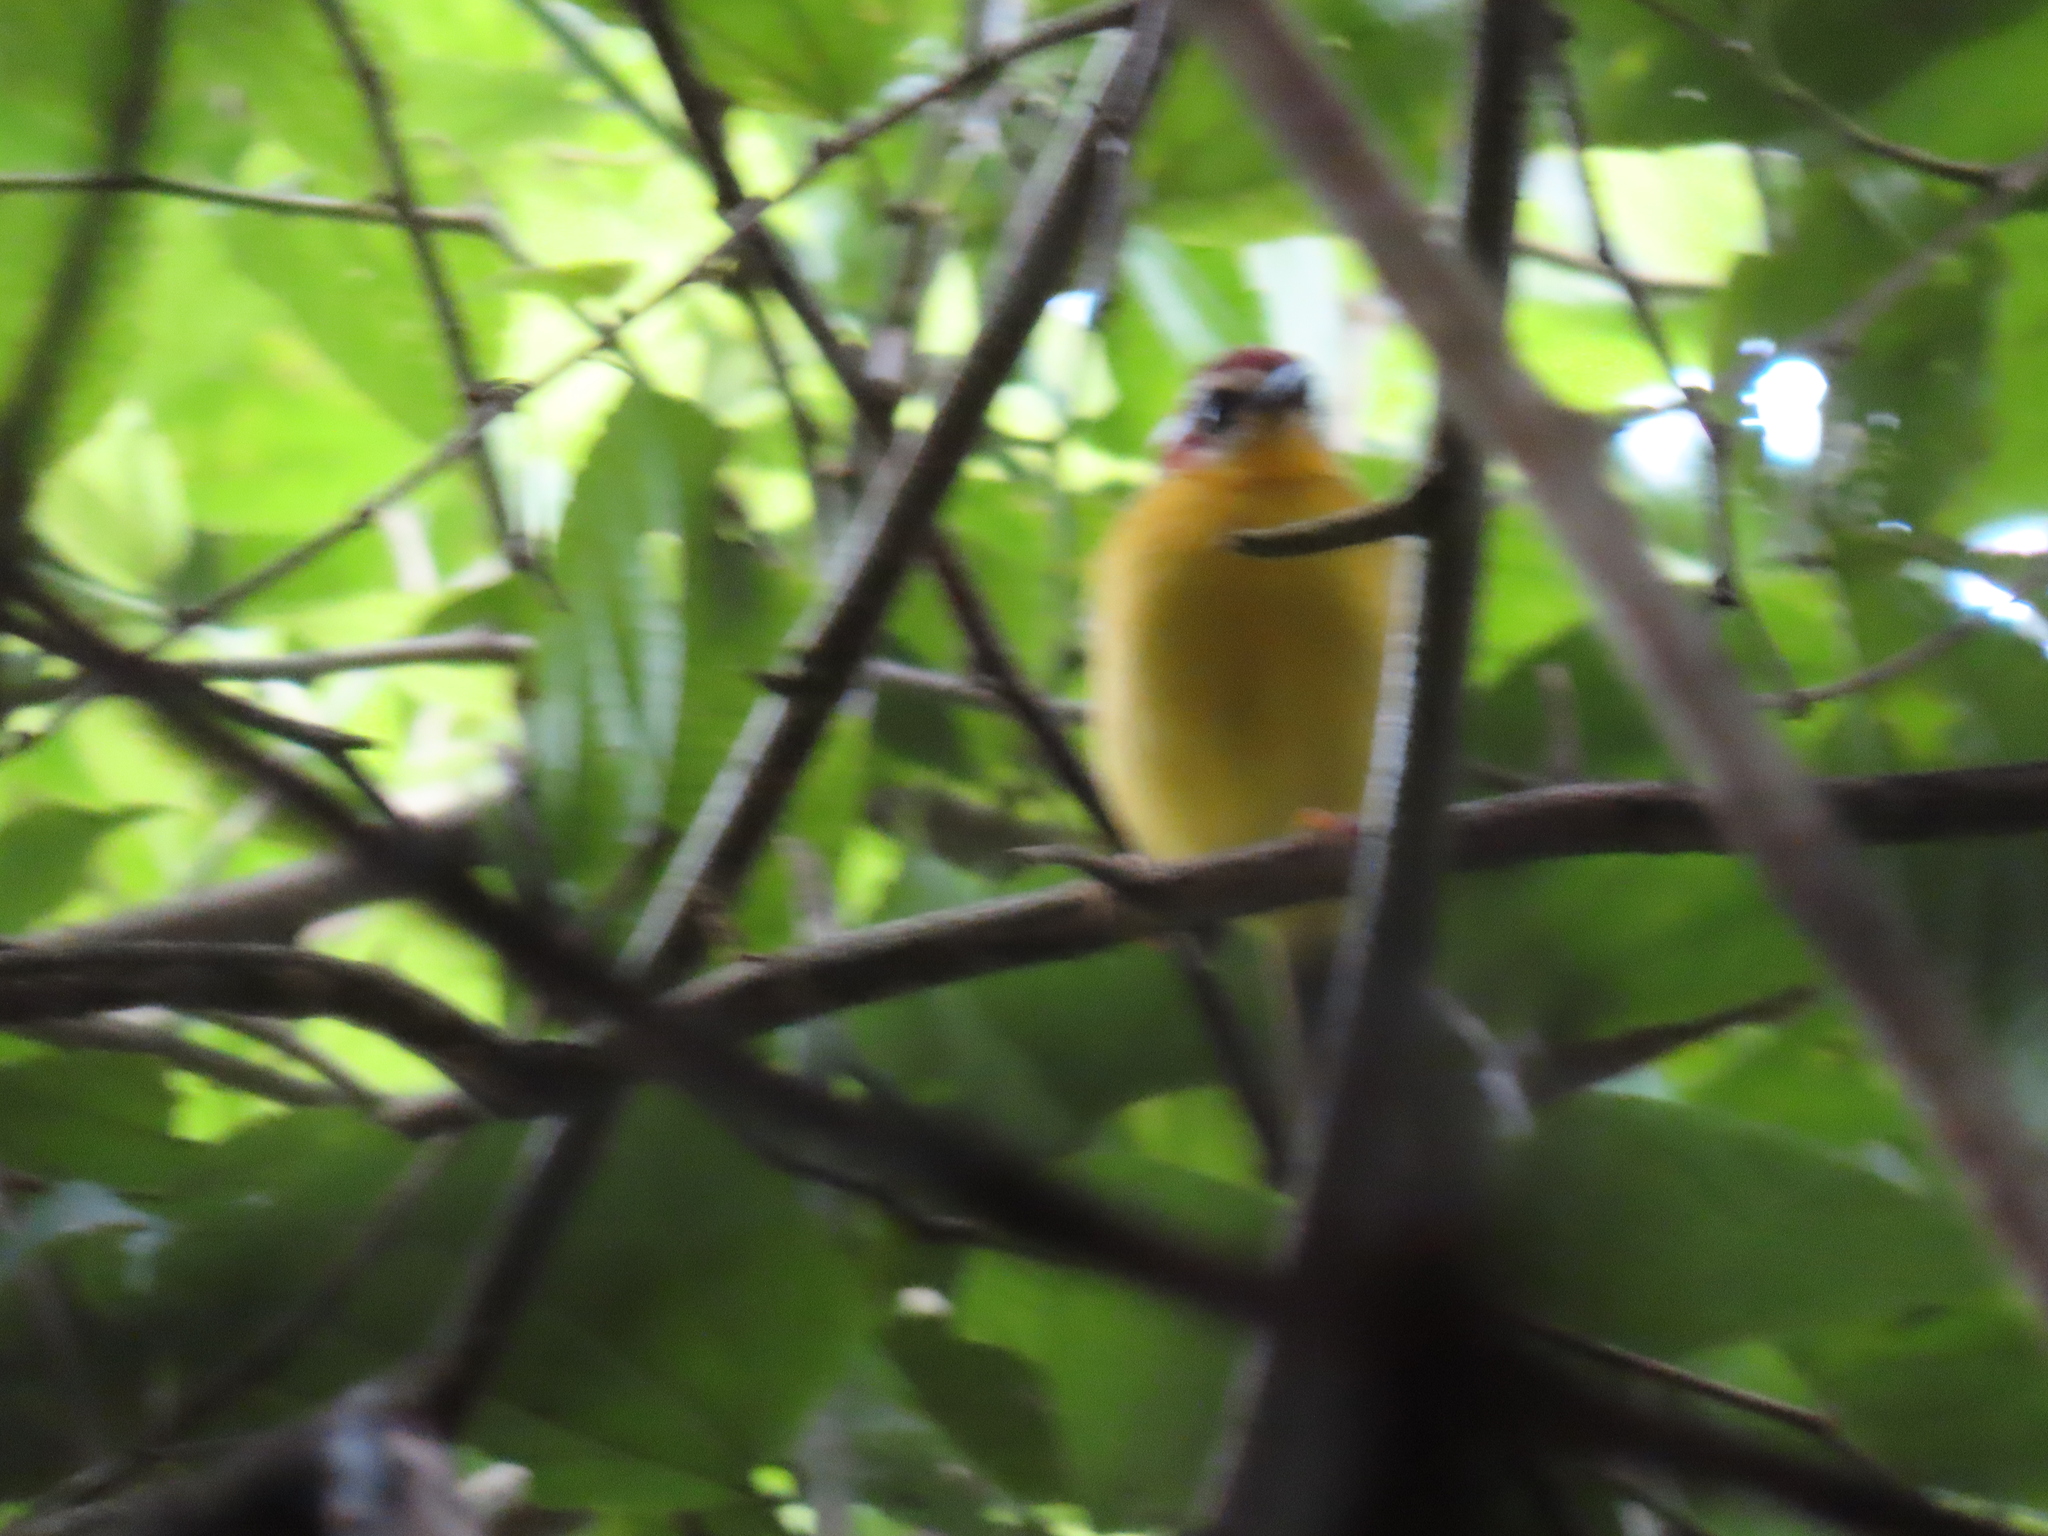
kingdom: Animalia
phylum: Chordata
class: Aves
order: Passeriformes
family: Parulidae
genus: Basileuterus
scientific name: Basileuterus rufifrons
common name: Rufous-capped warbler
